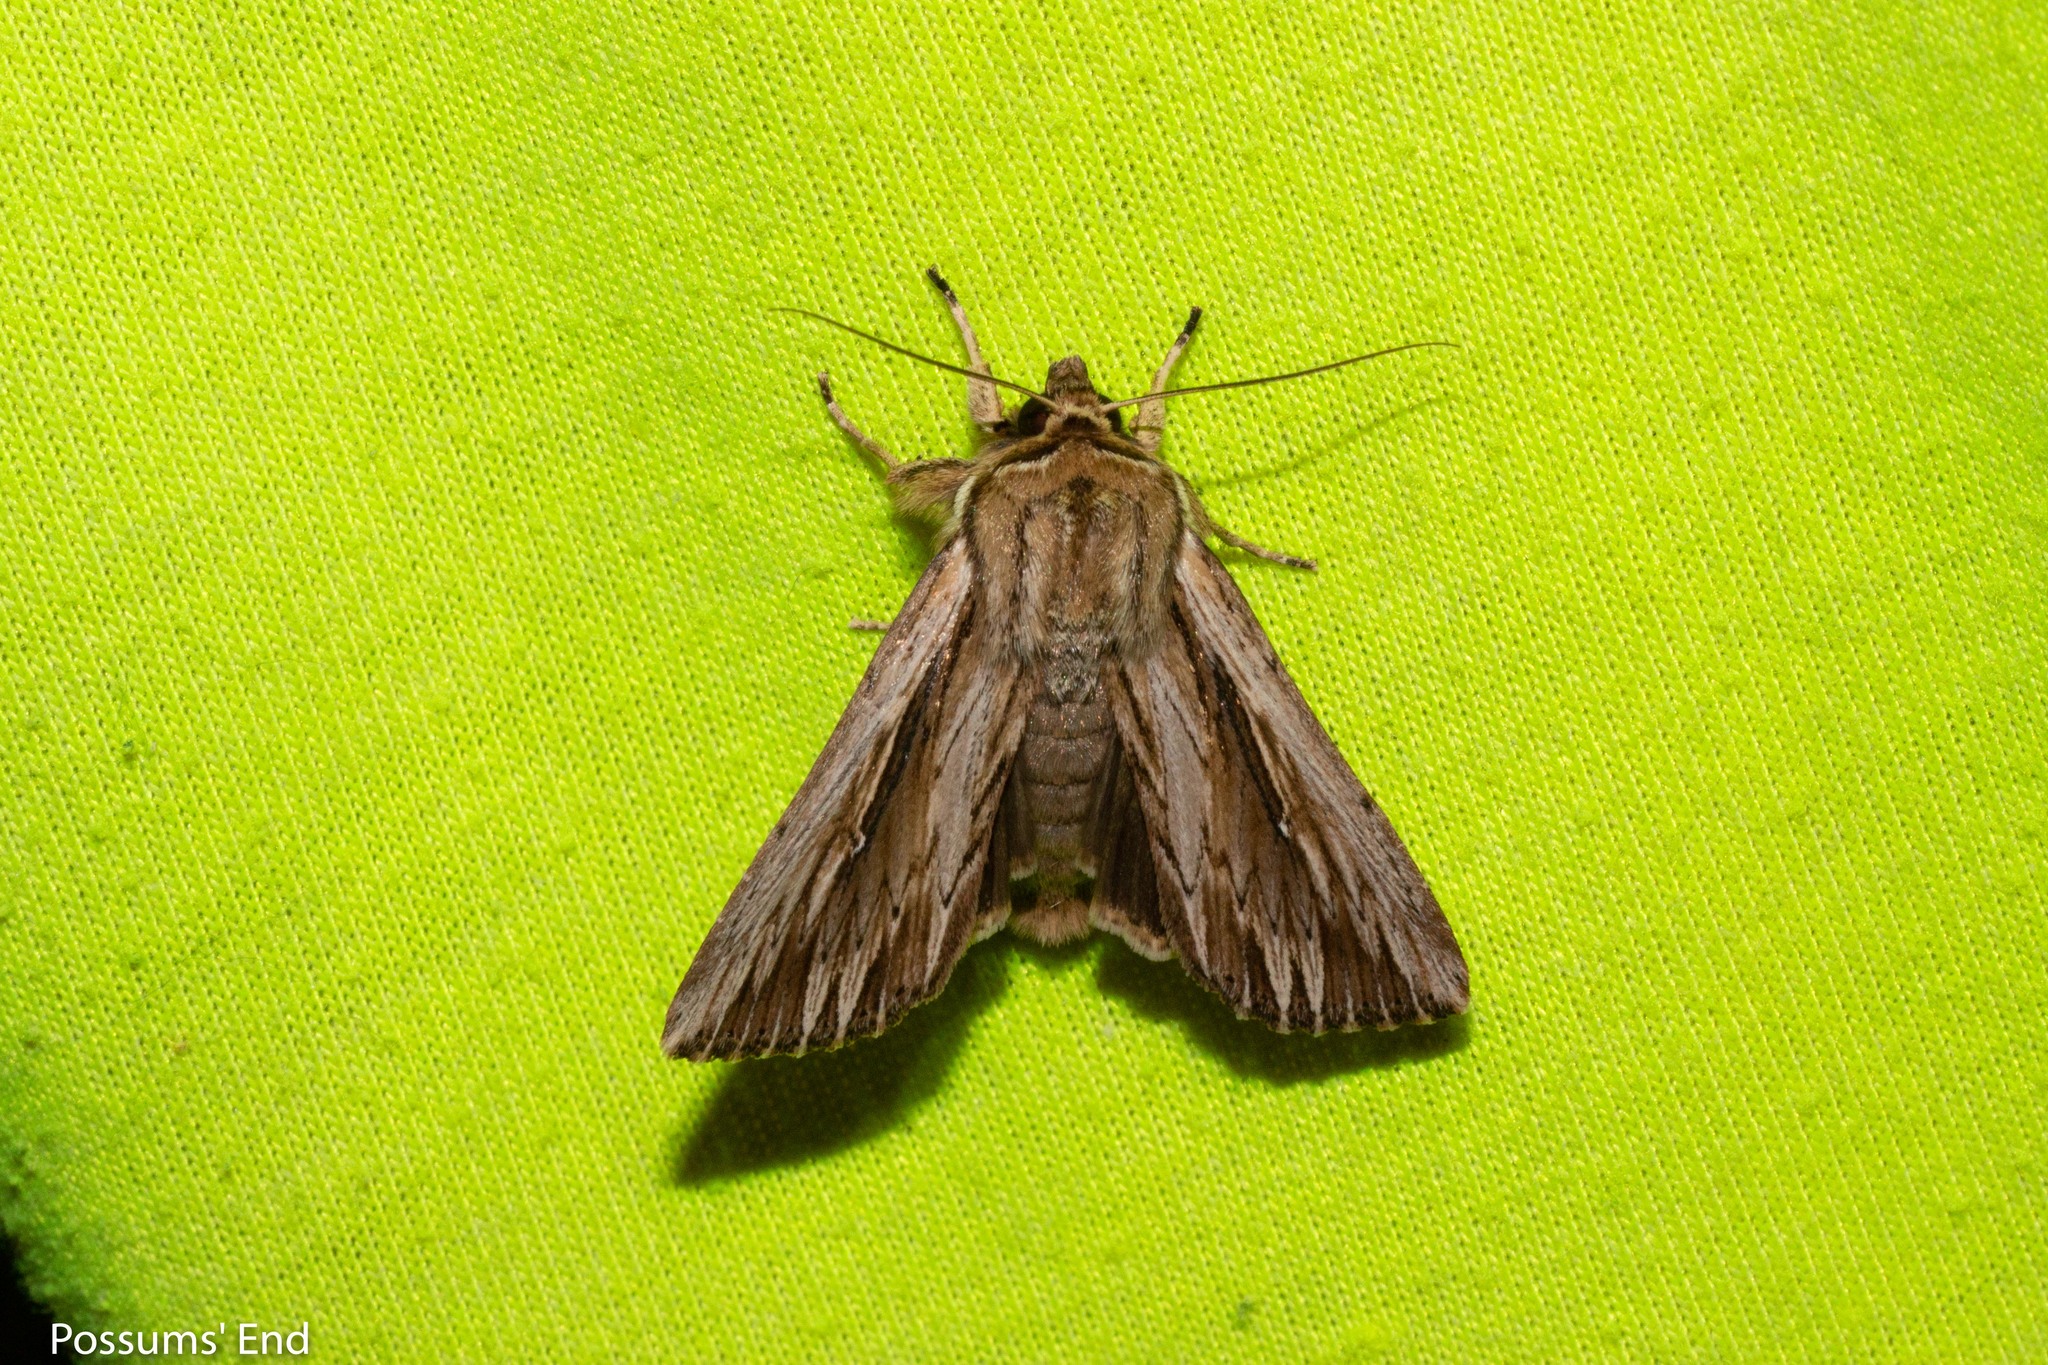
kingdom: Animalia
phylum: Arthropoda
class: Insecta
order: Lepidoptera
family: Noctuidae
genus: Persectania
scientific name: Persectania aversa
